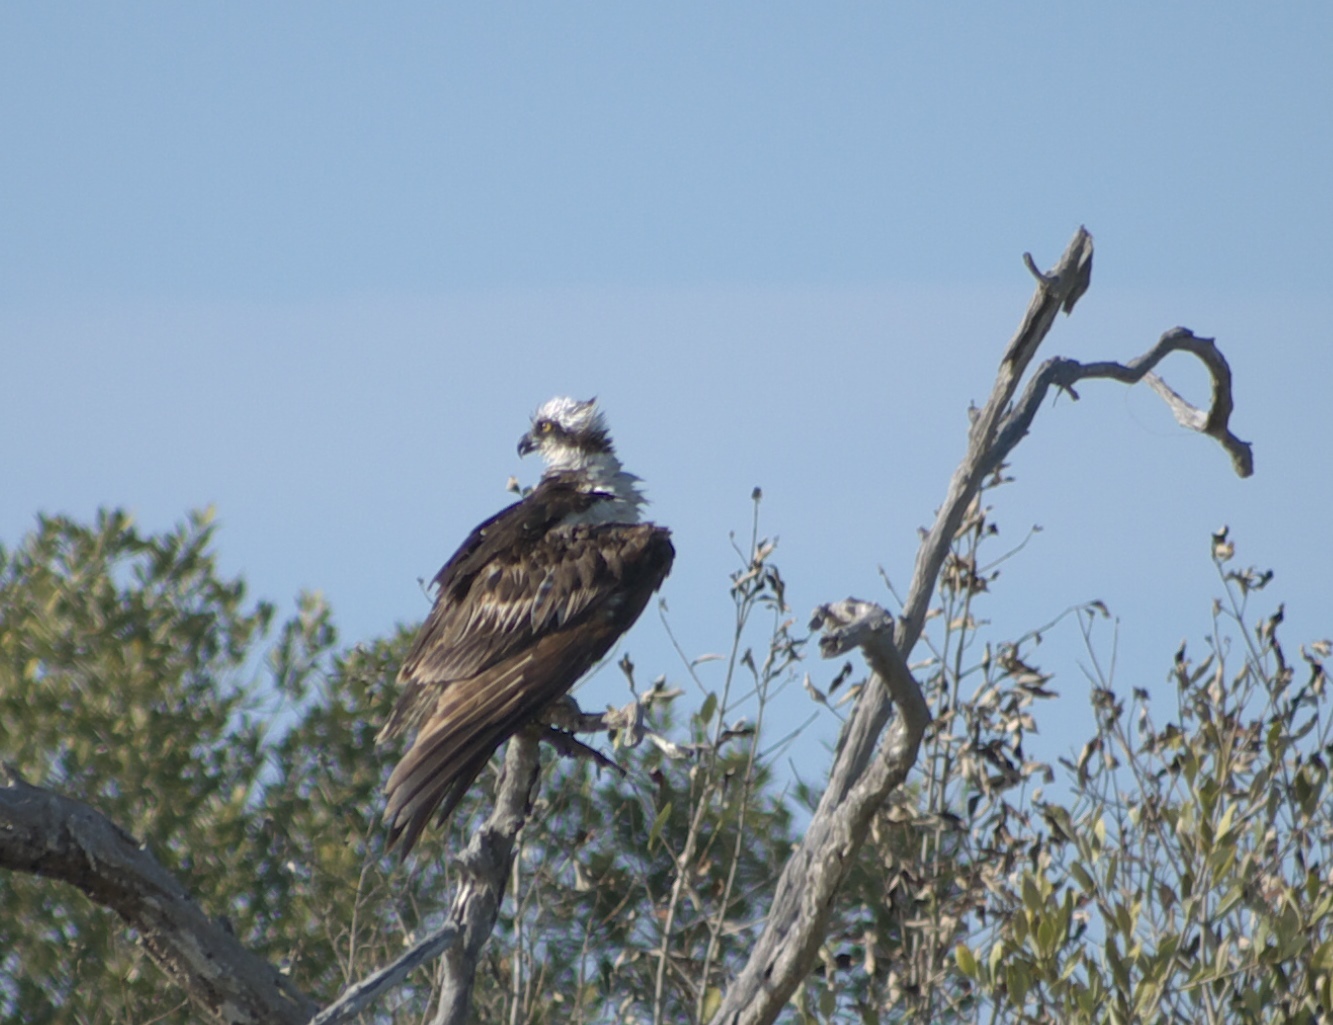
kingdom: Animalia
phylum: Chordata
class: Aves
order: Accipitriformes
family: Pandionidae
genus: Pandion
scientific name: Pandion haliaetus
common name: Osprey
